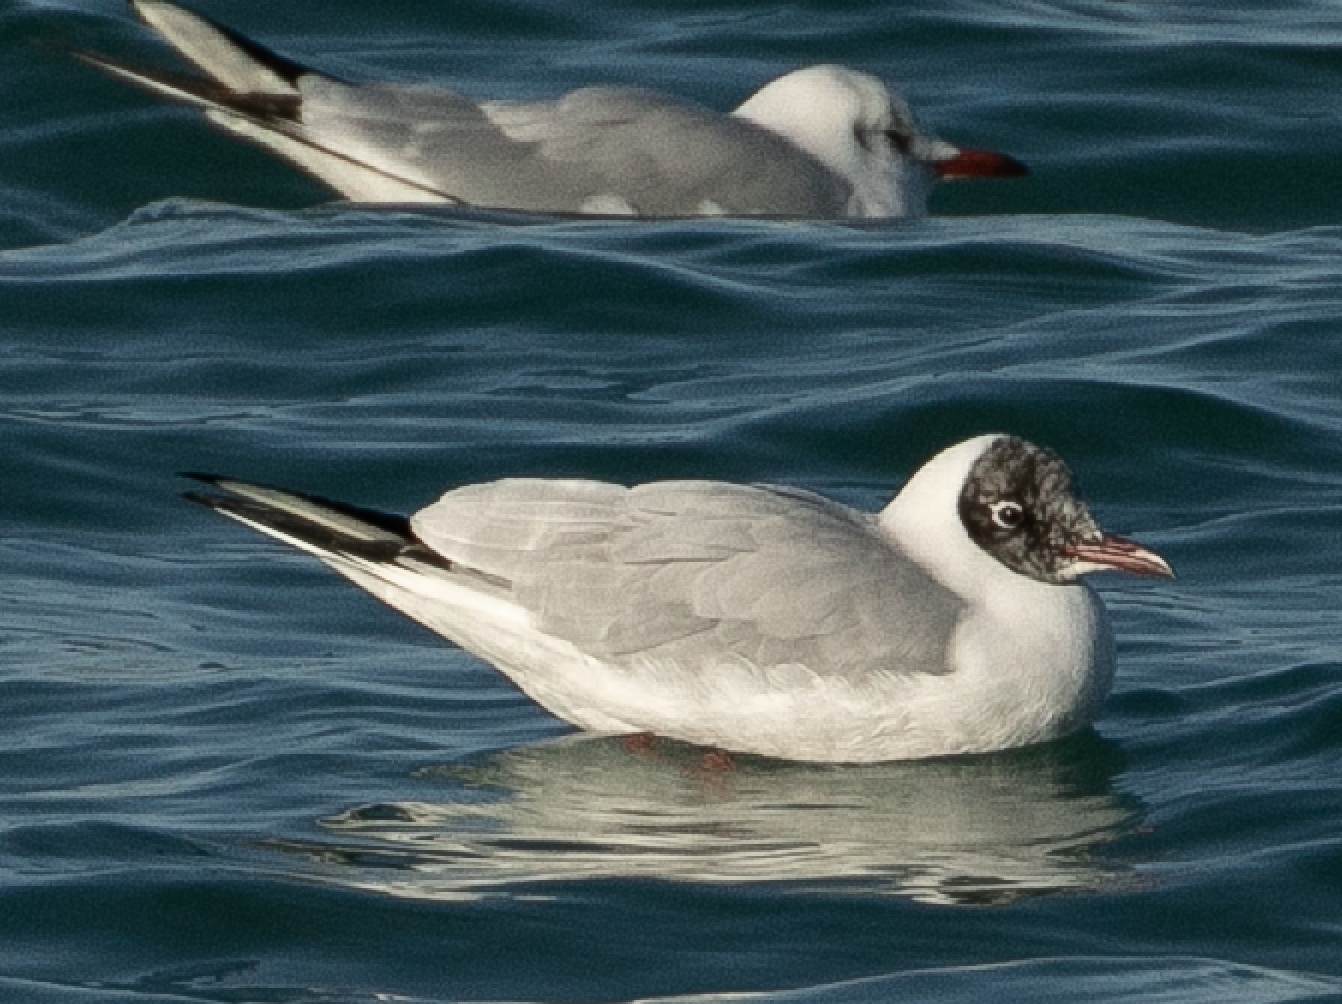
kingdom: Animalia
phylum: Chordata
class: Aves
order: Charadriiformes
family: Laridae
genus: Chroicocephalus
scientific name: Chroicocephalus ridibundus
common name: Black-headed gull
